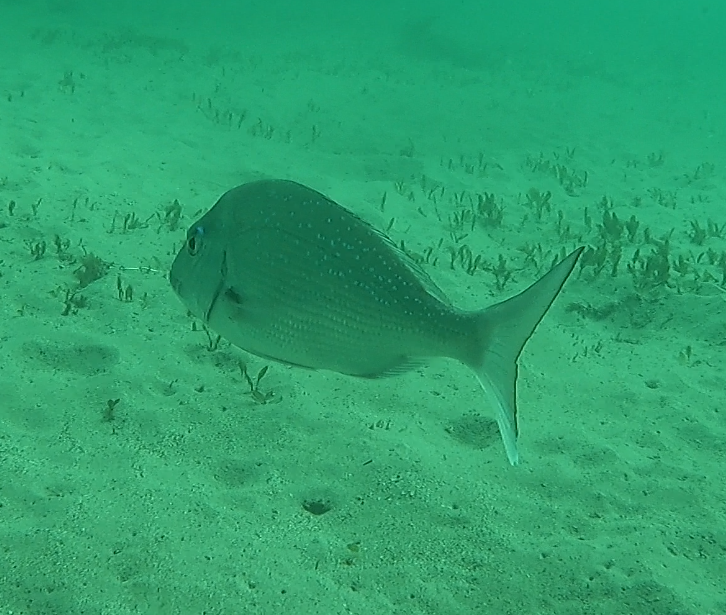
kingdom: Animalia
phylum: Chordata
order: Perciformes
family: Sparidae
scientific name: Sparidae
